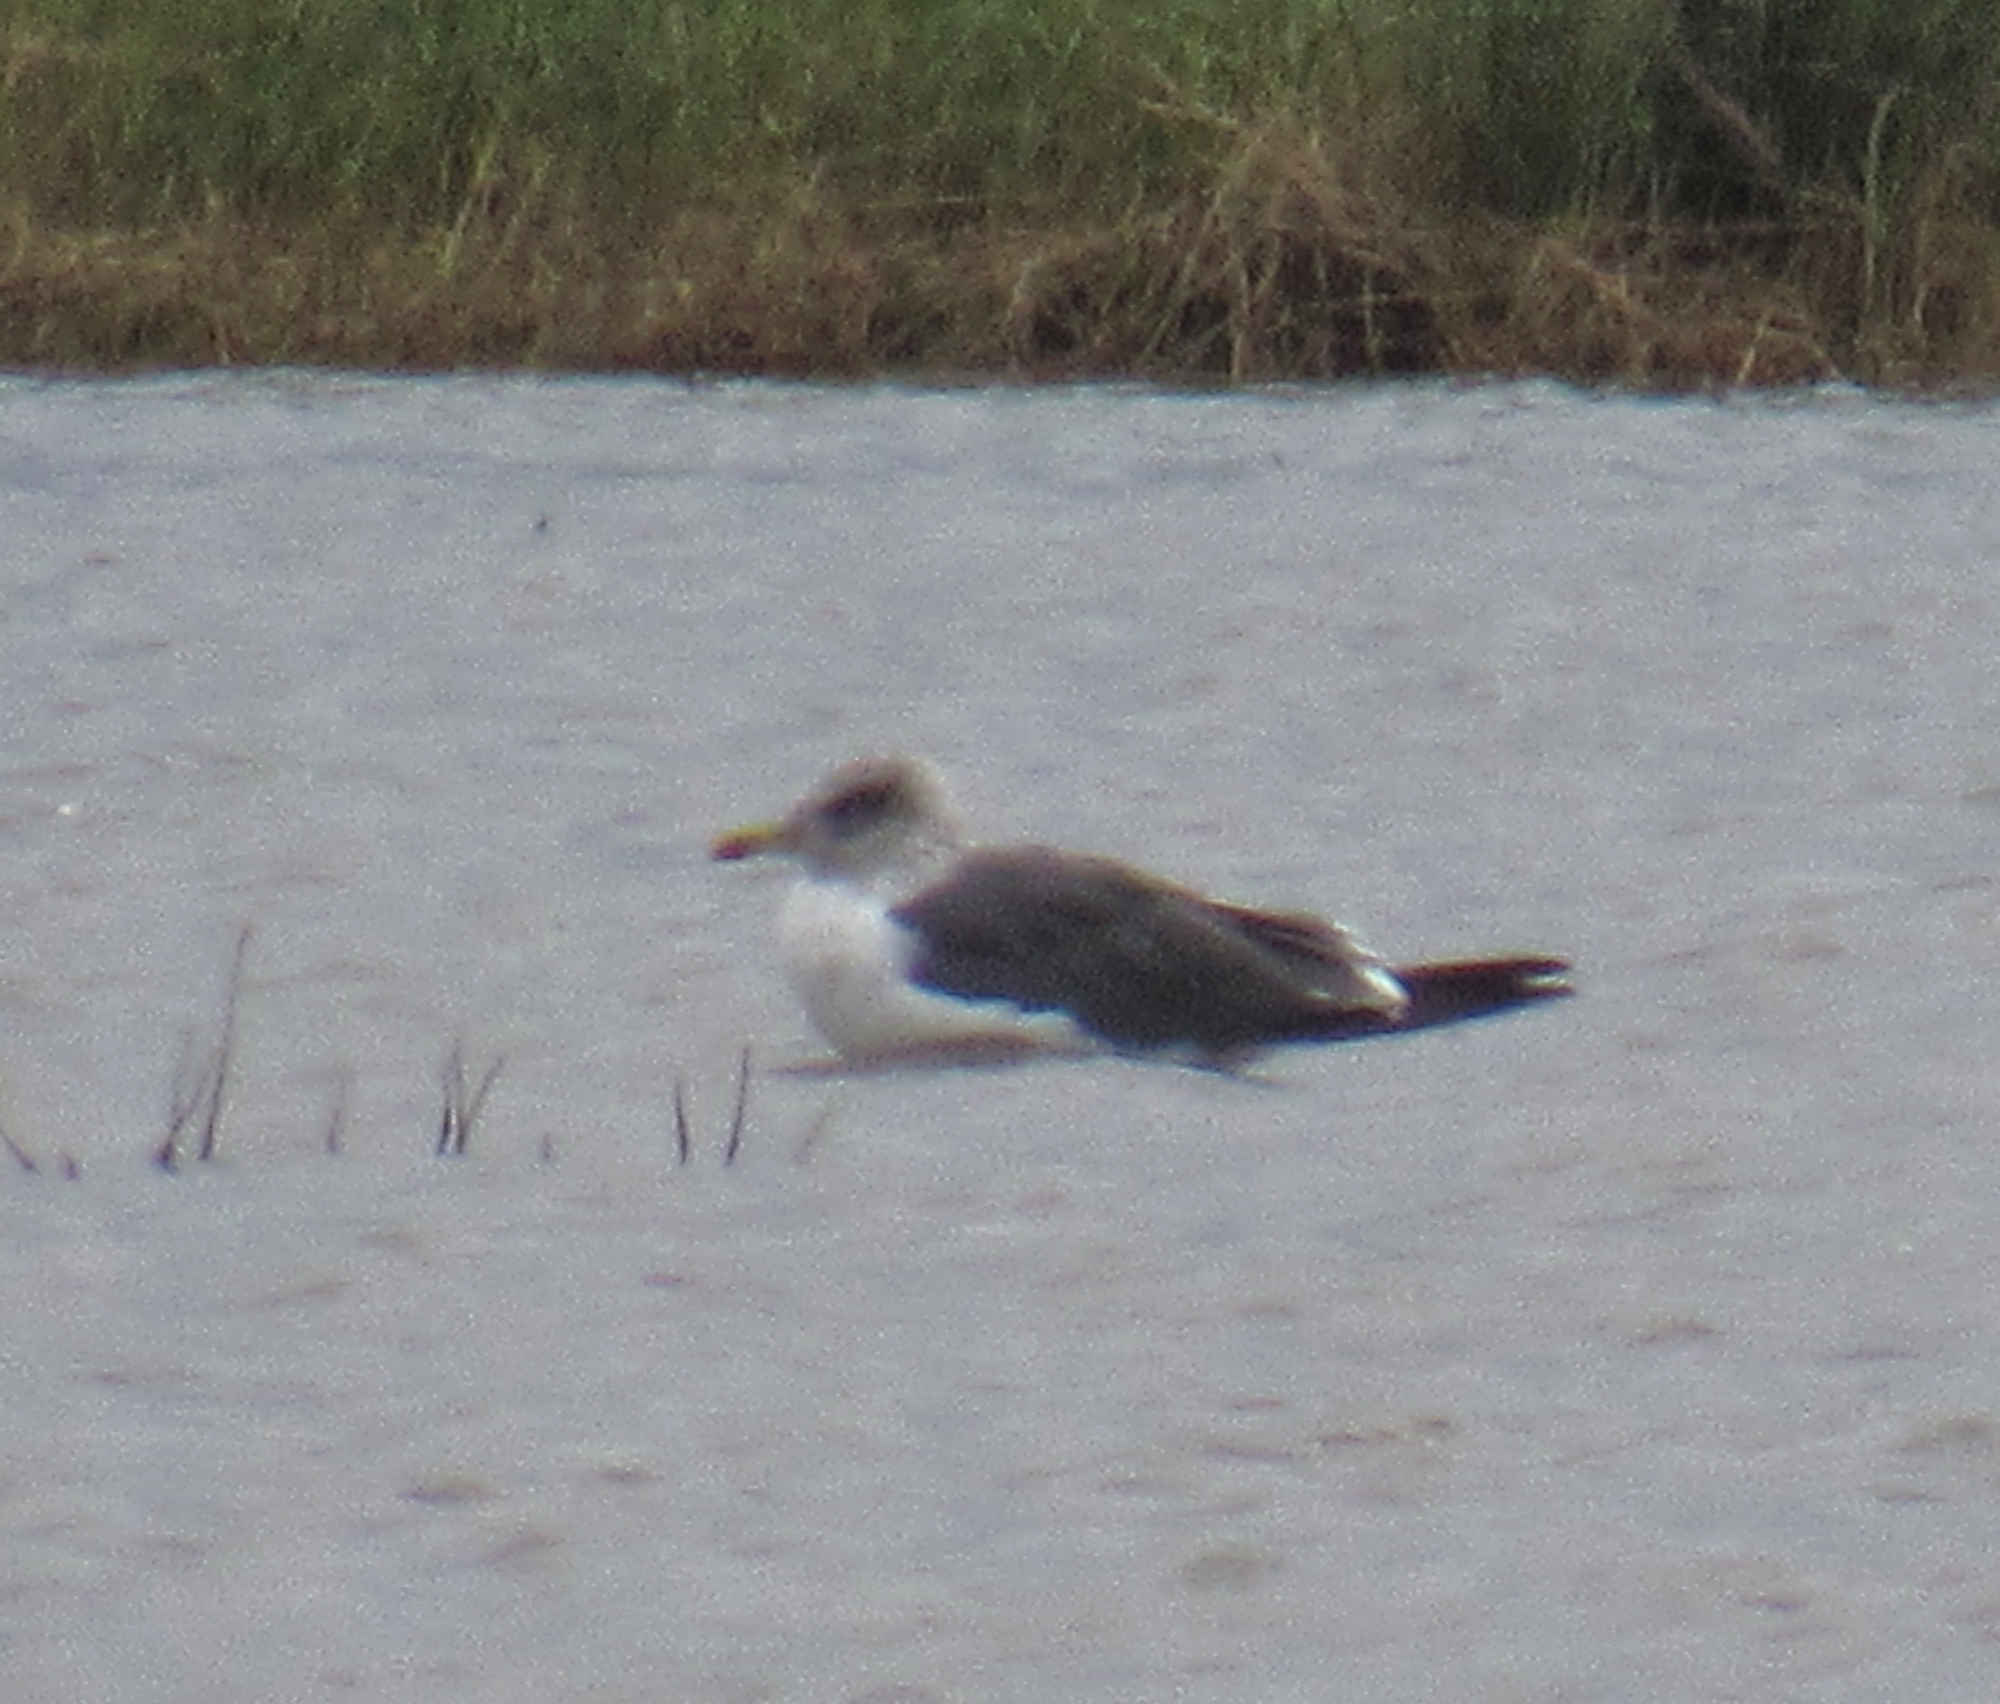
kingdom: Animalia
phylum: Chordata
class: Aves
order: Charadriiformes
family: Laridae
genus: Larus
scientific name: Larus fuscus
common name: Lesser black-backed gull
